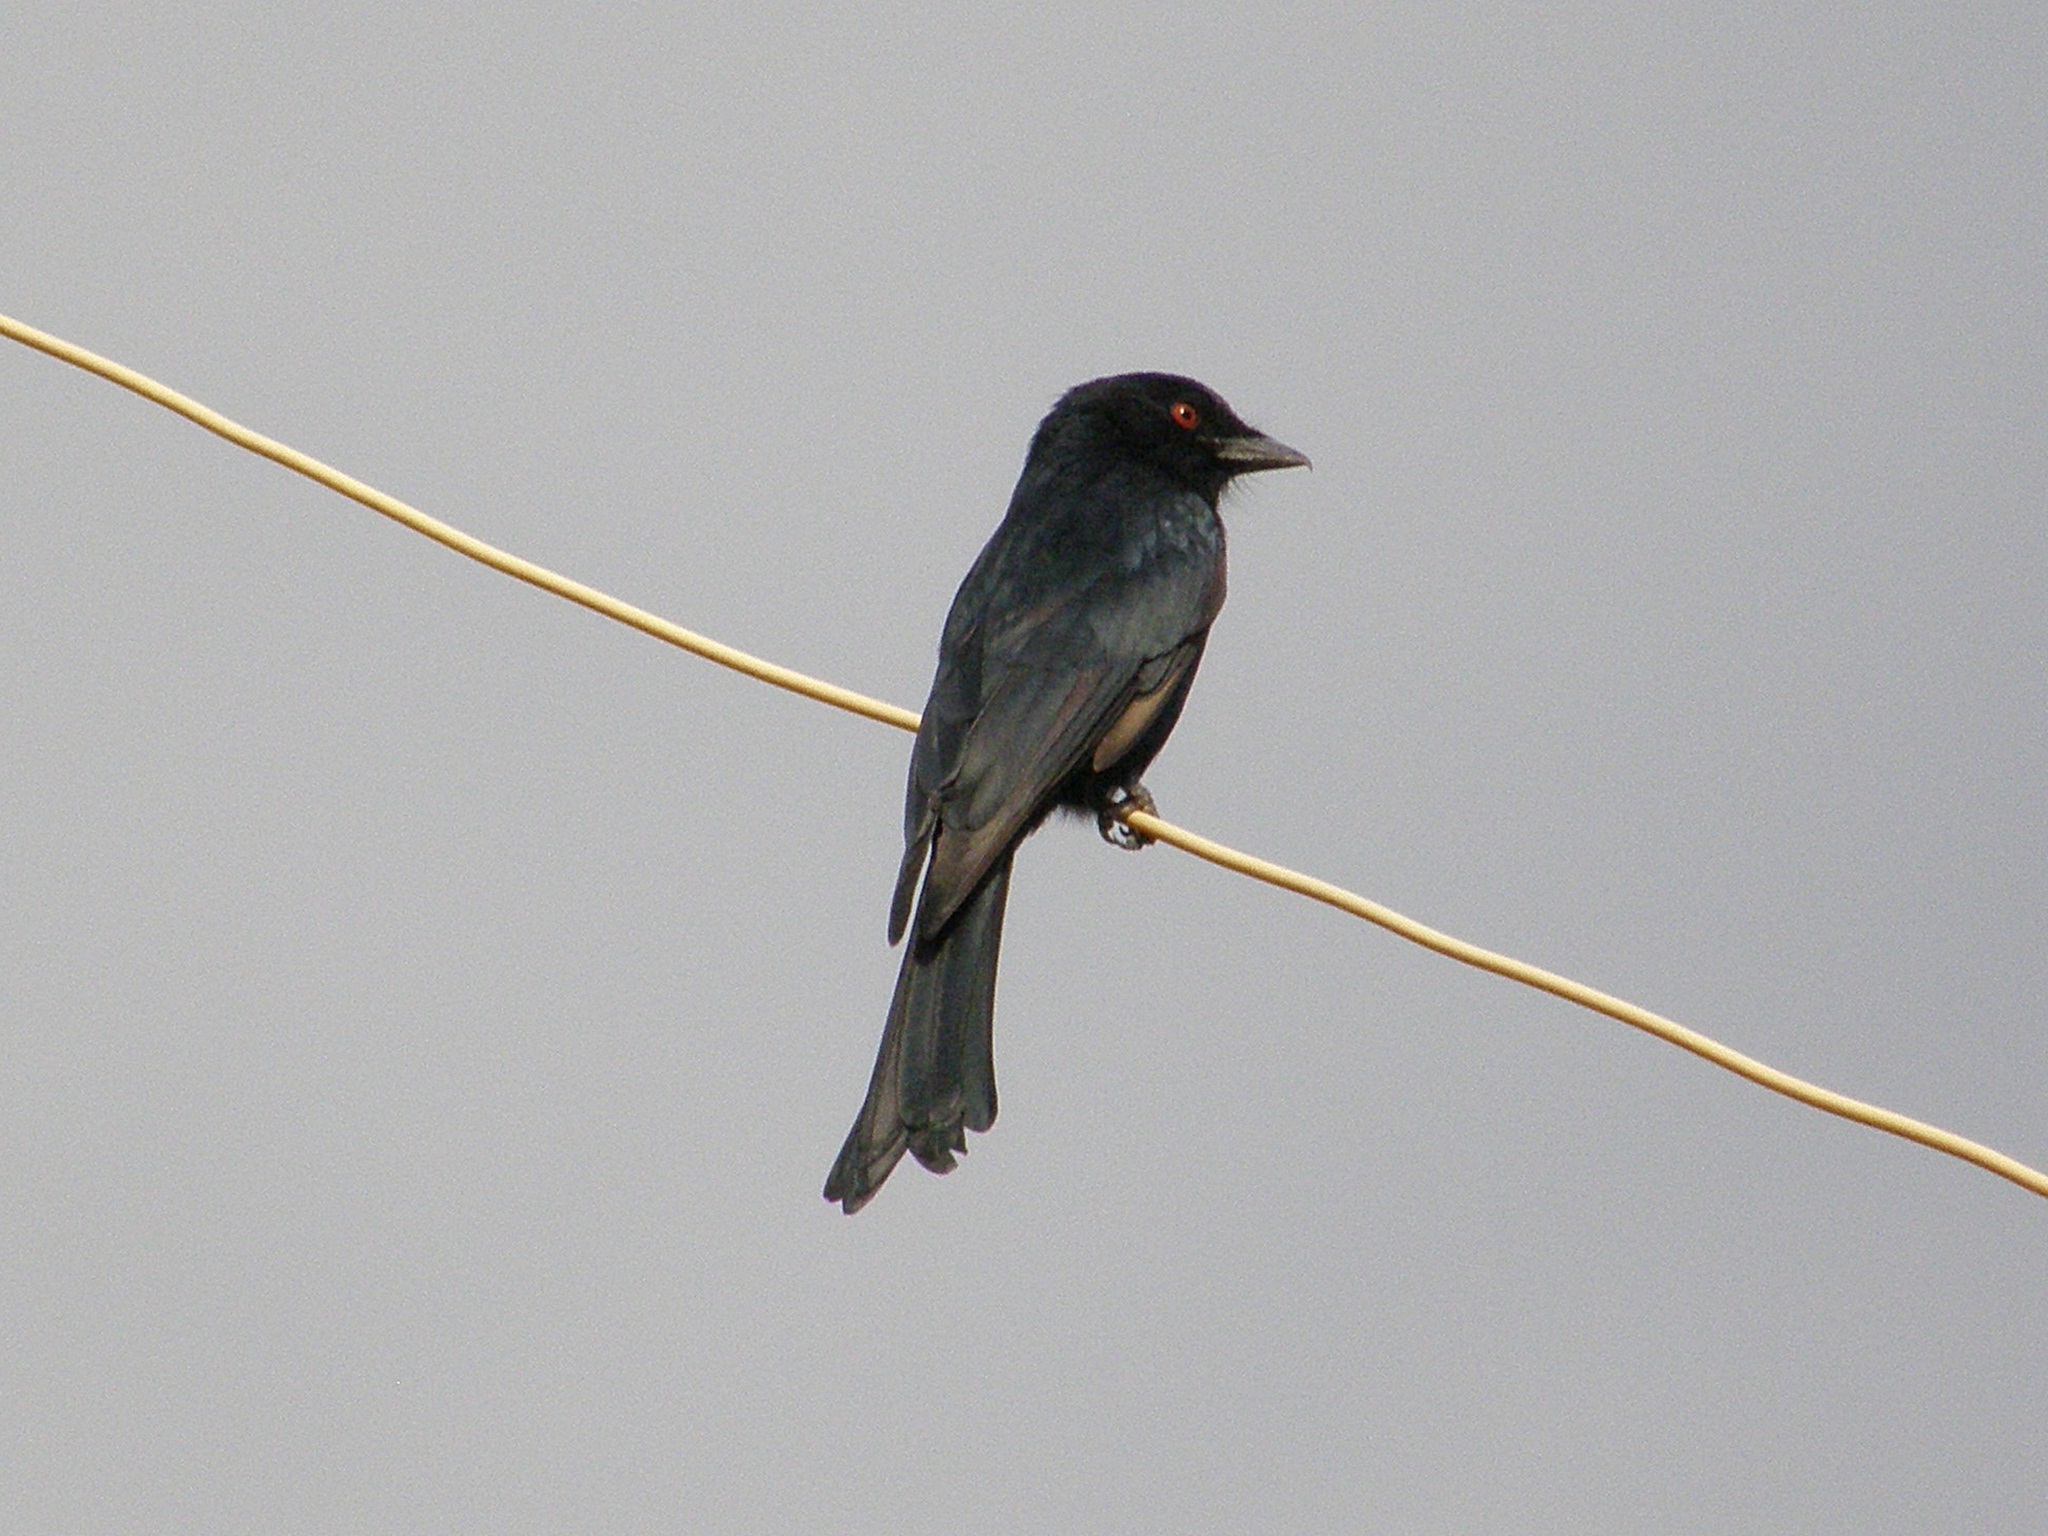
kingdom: Animalia
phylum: Chordata
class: Aves
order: Passeriformes
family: Dicruridae
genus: Dicrurus
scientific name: Dicrurus adsimilis
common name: Fork-tailed drongo
